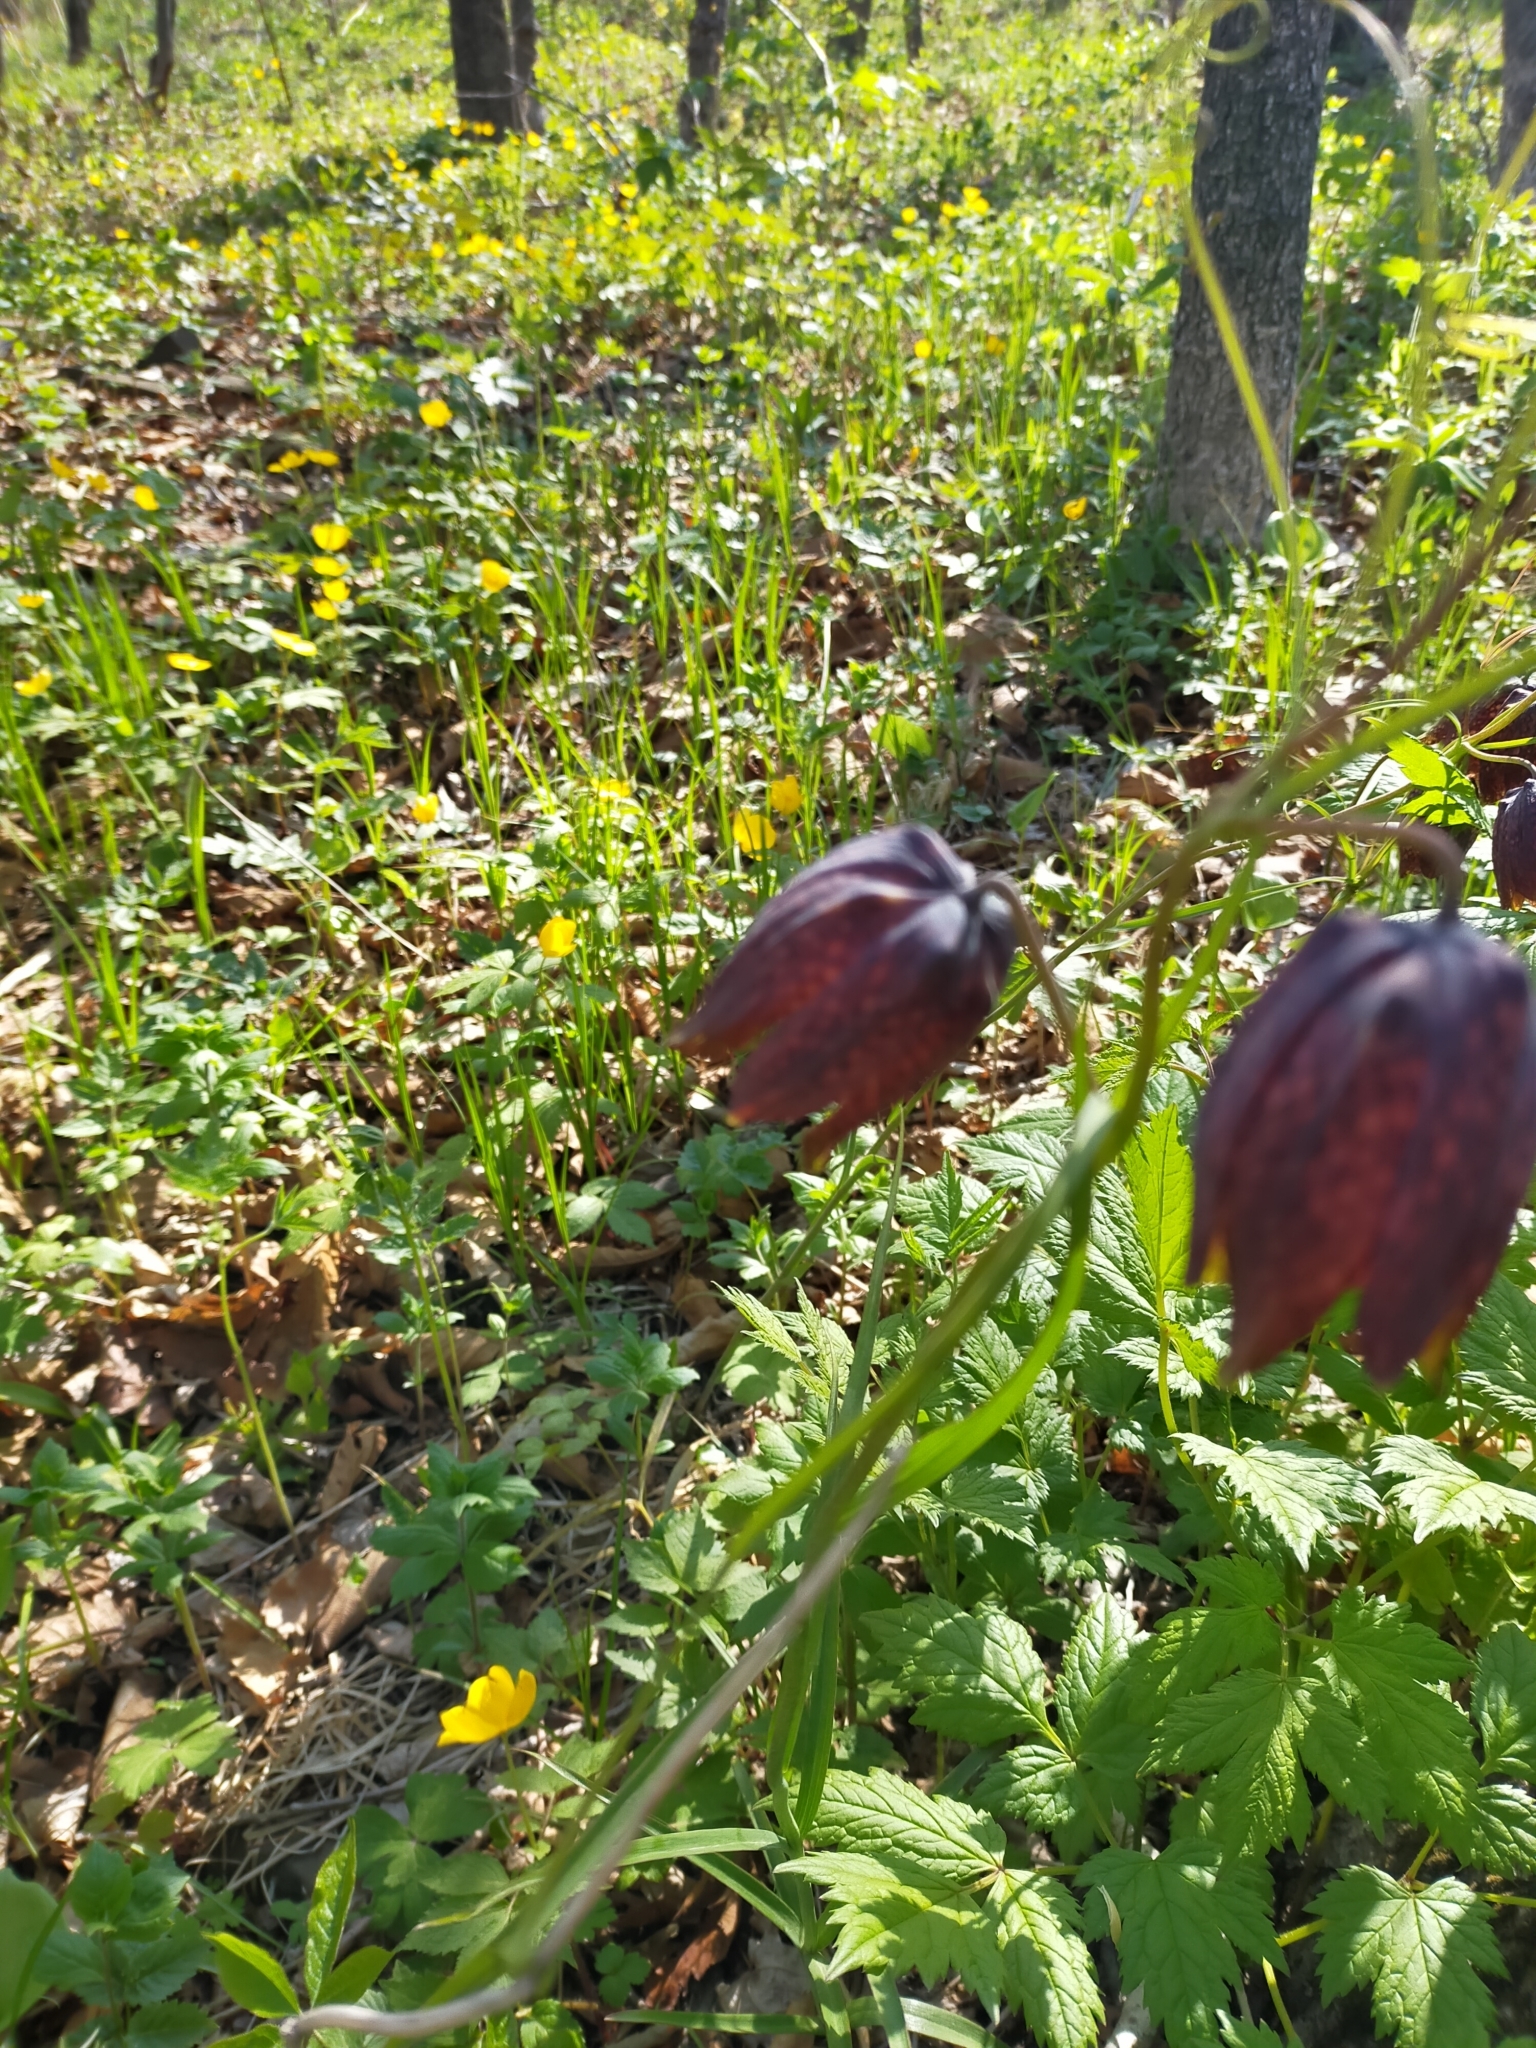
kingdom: Plantae
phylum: Tracheophyta
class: Liliopsida
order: Liliales
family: Liliaceae
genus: Fritillaria
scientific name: Fritillaria usuriensis
